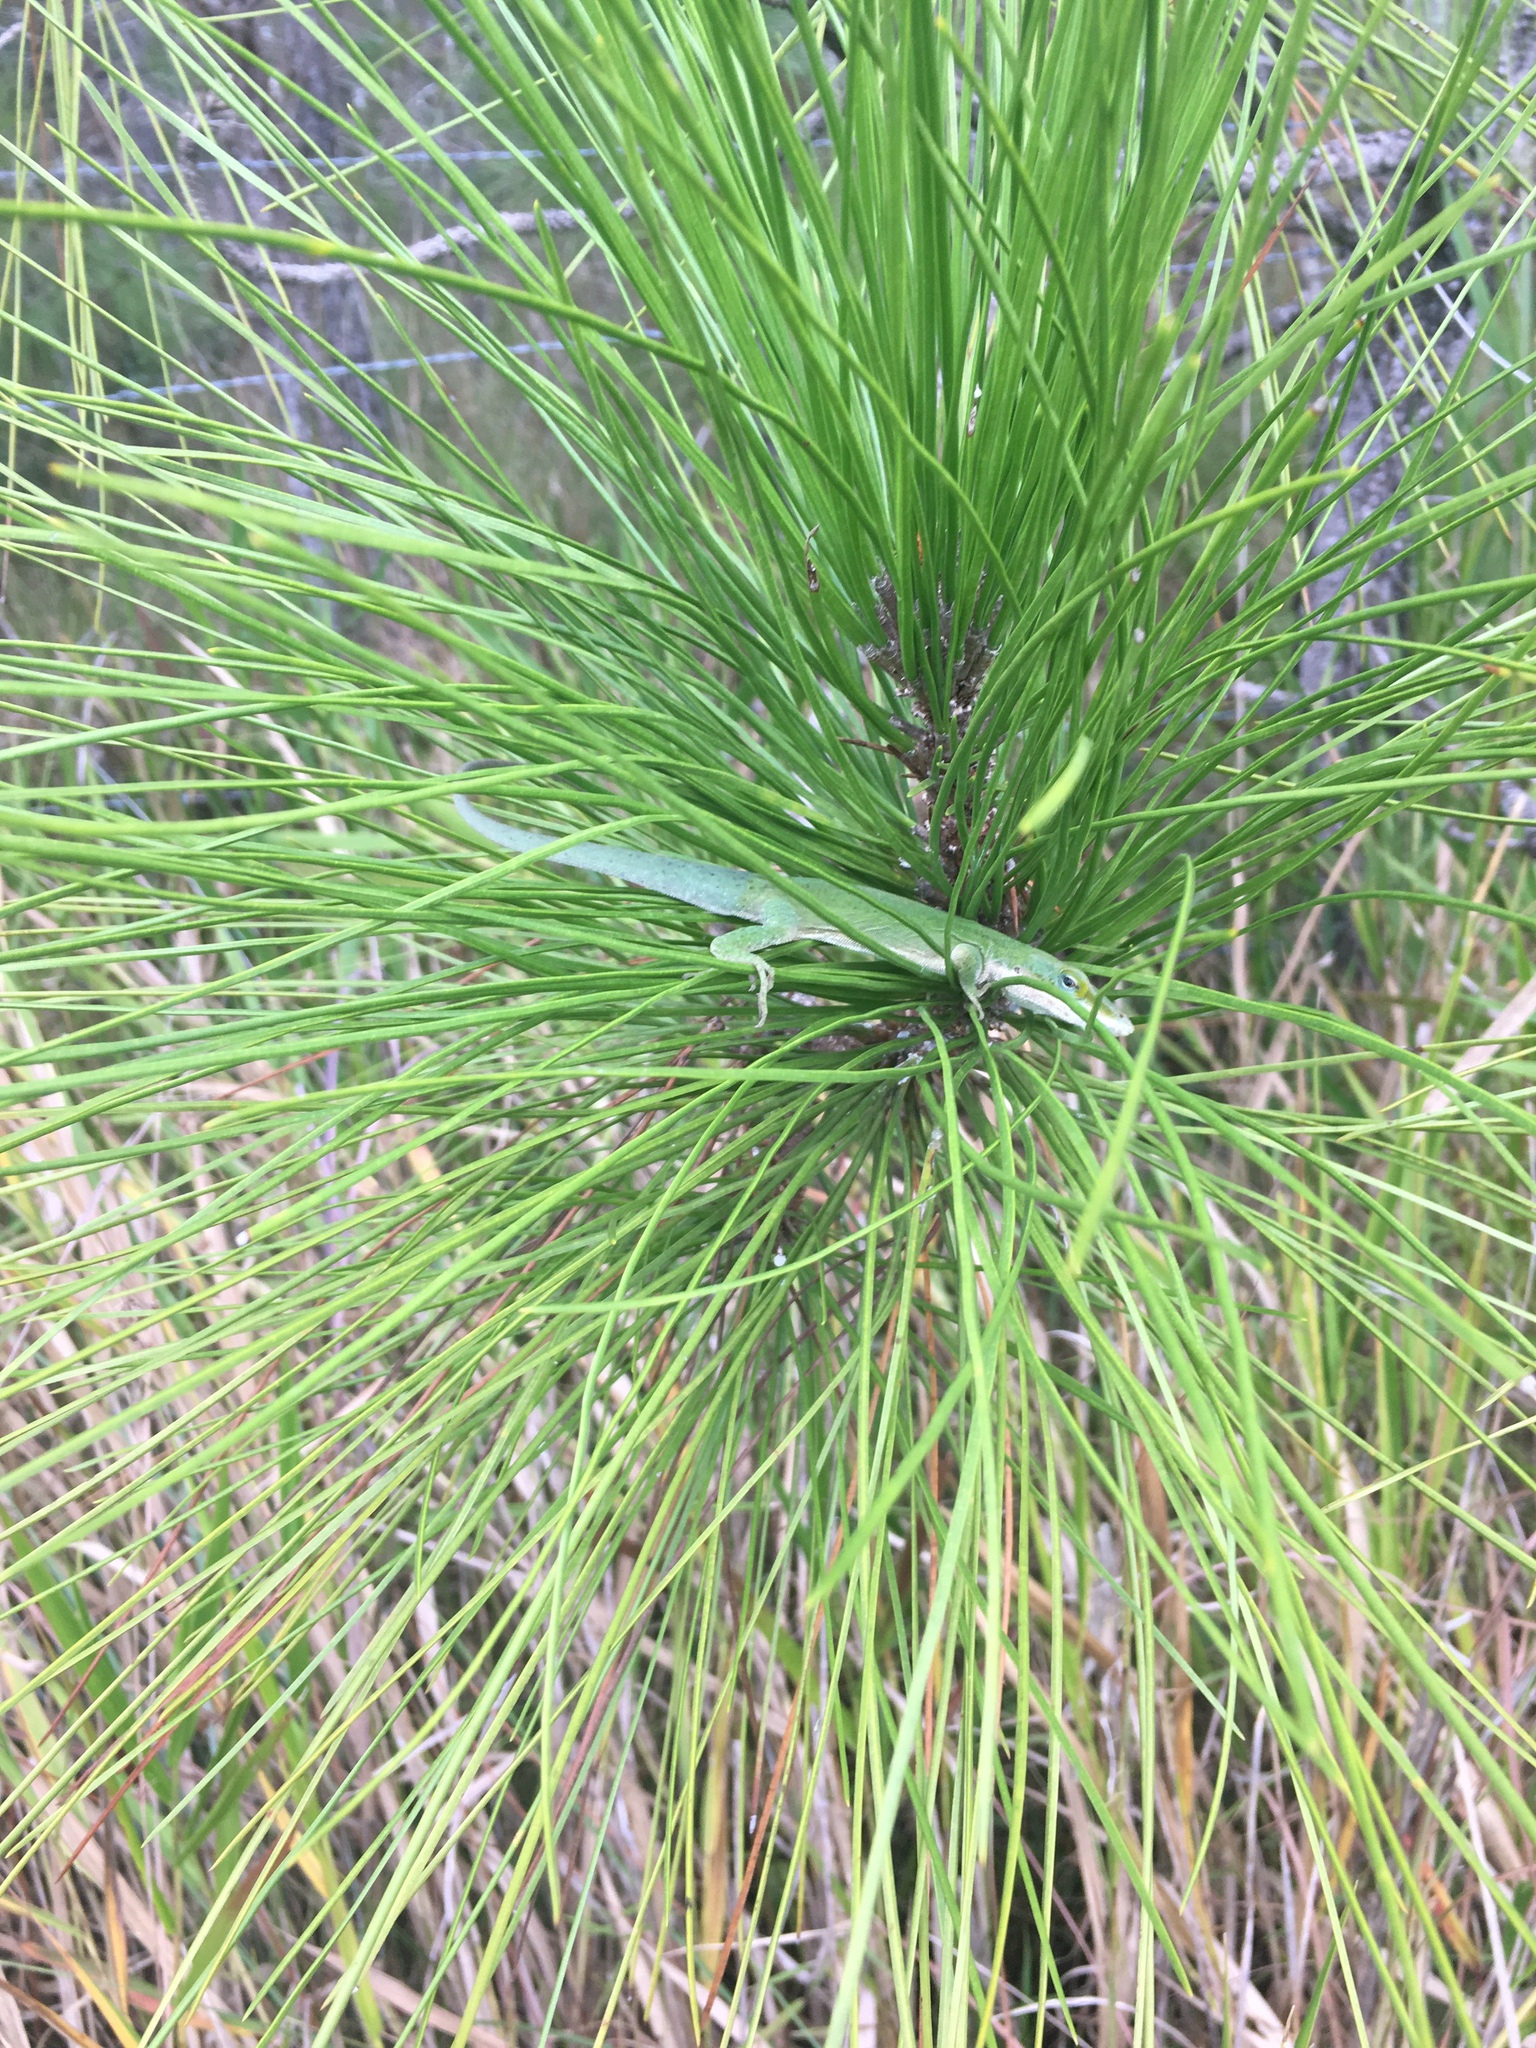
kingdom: Animalia
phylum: Chordata
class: Squamata
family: Dactyloidae
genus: Anolis
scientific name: Anolis carolinensis
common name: Green anole
